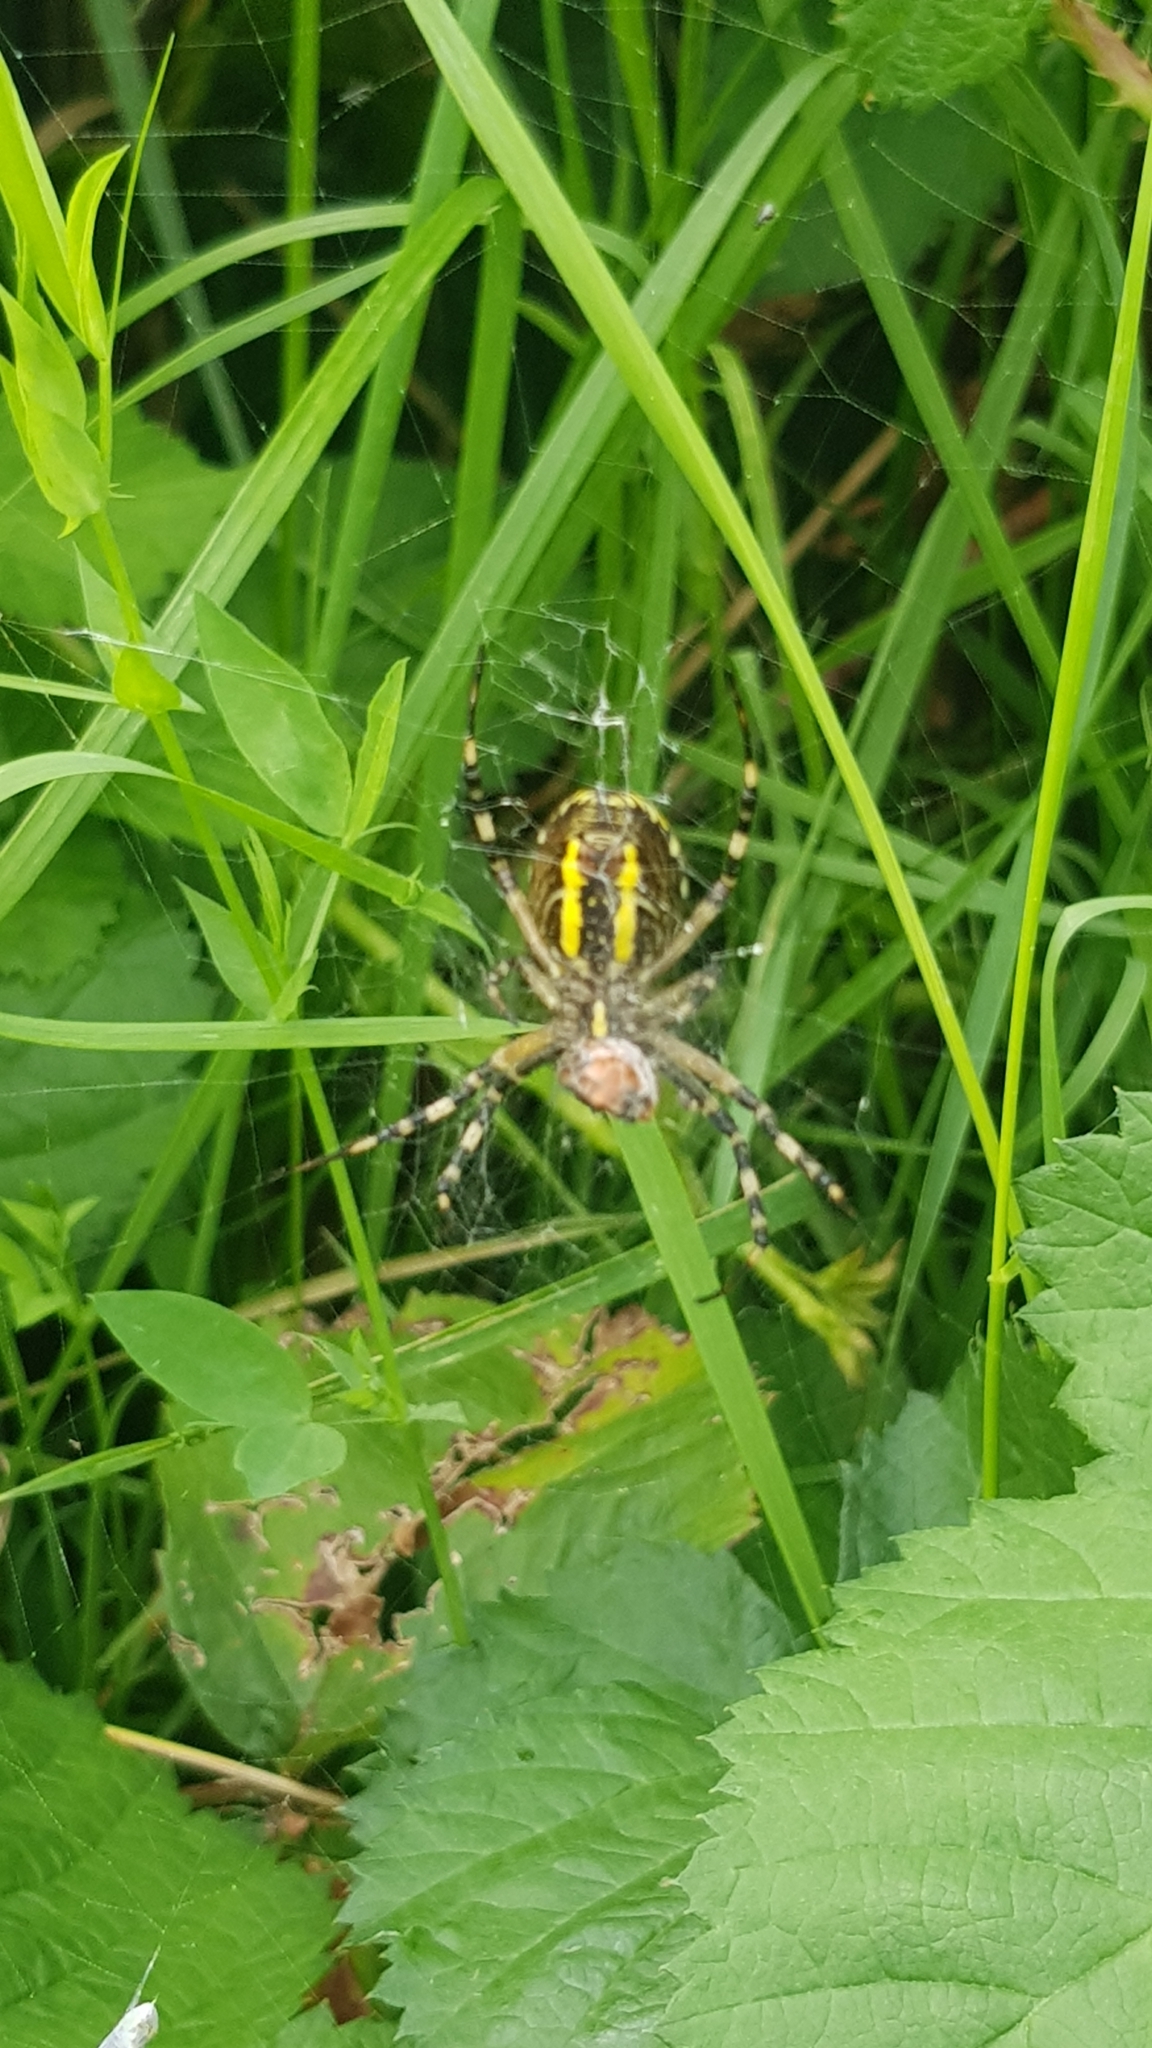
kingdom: Animalia
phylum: Arthropoda
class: Arachnida
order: Araneae
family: Araneidae
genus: Argiope
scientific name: Argiope bruennichi
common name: Wasp spider
